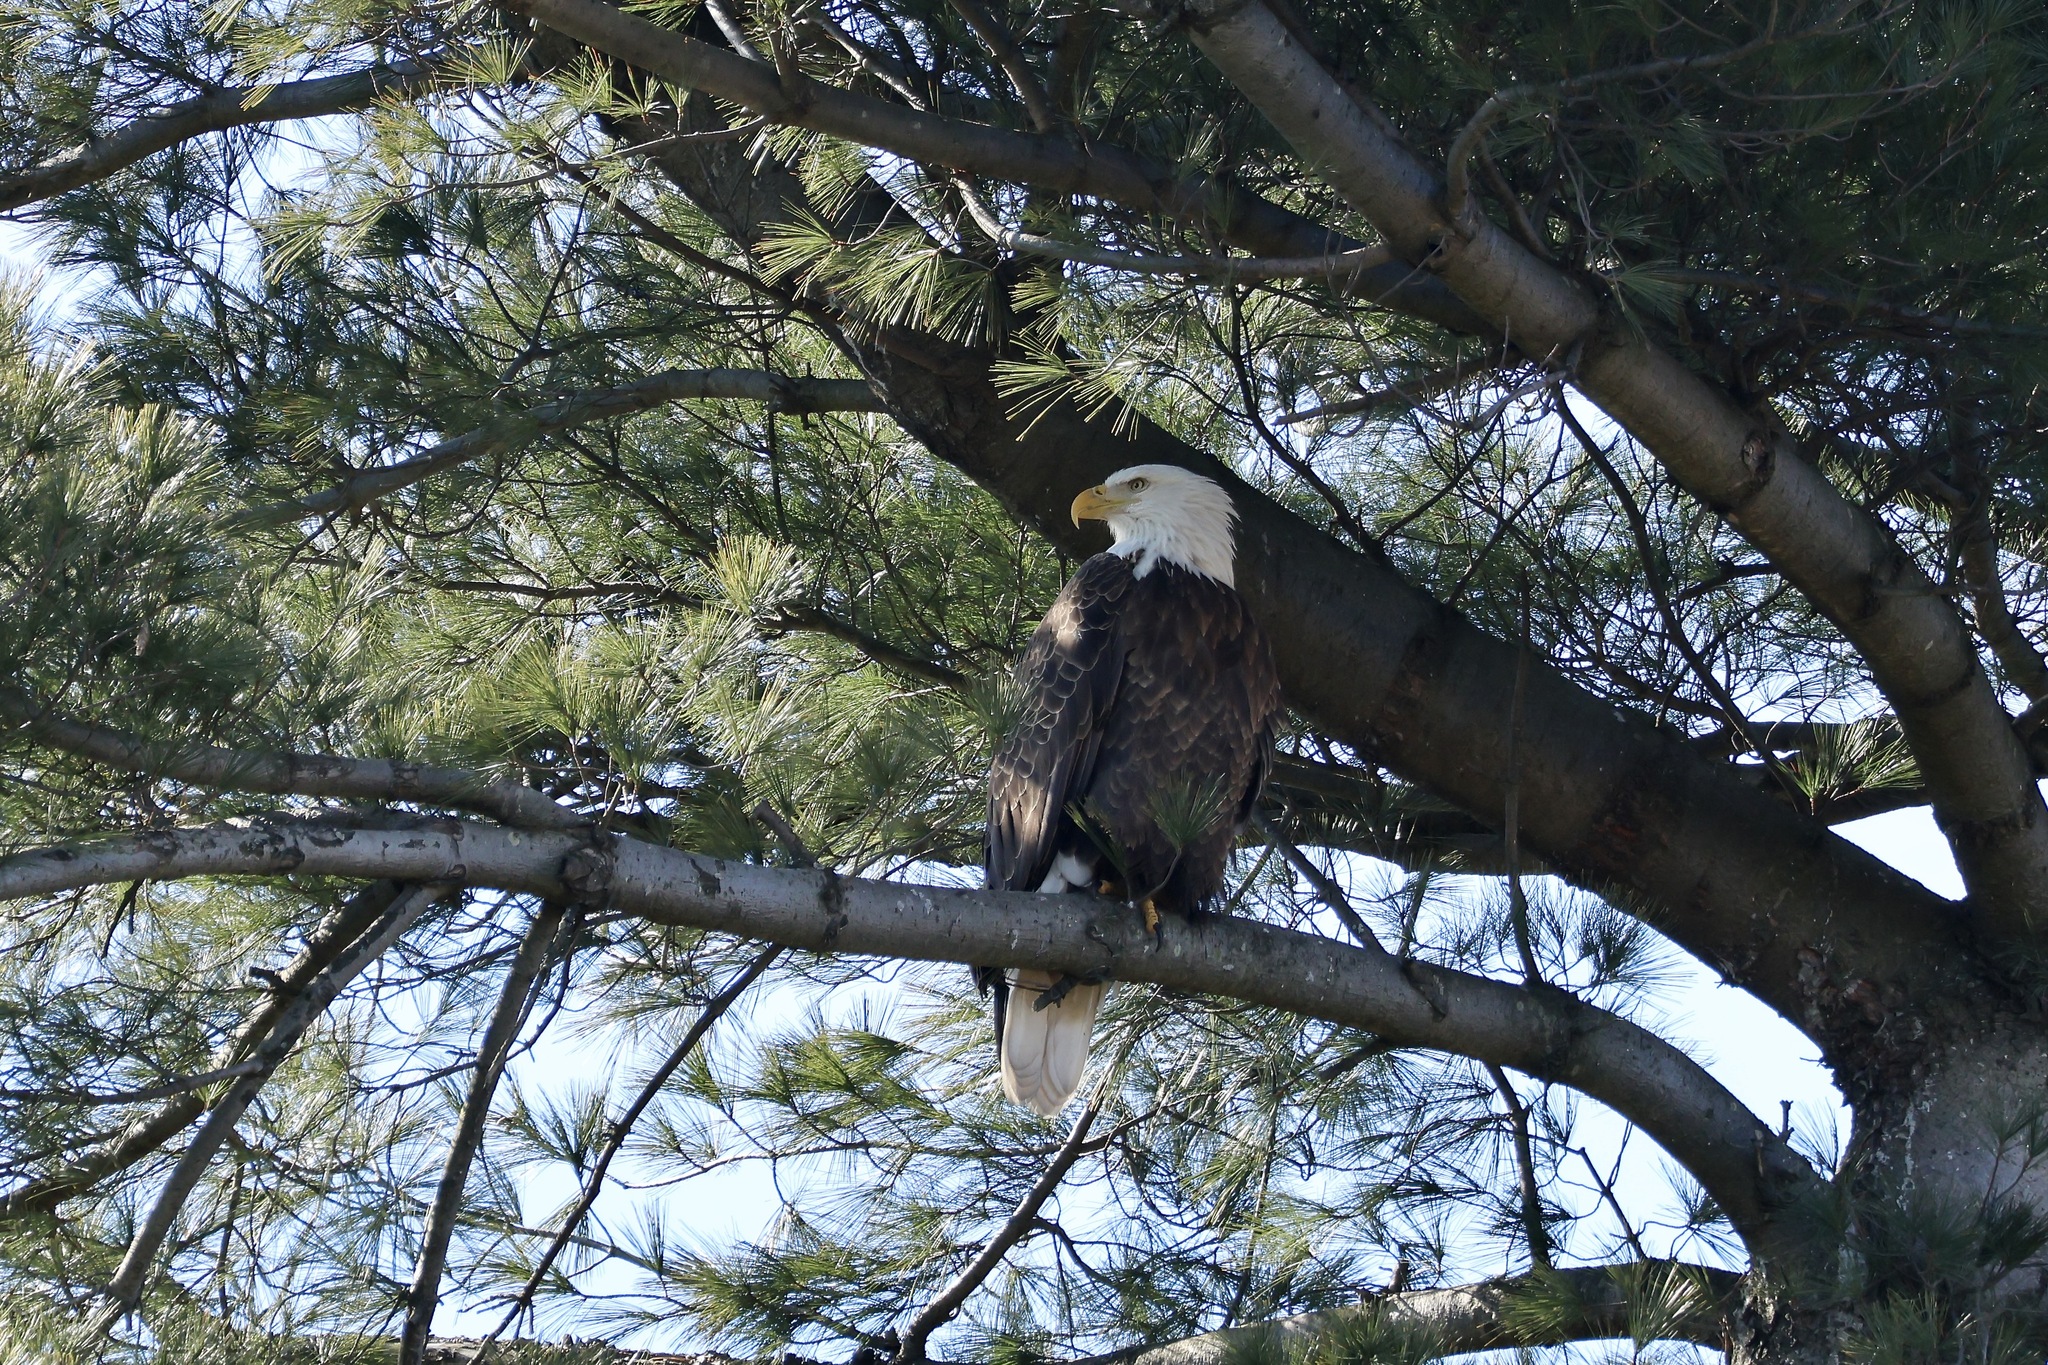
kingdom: Animalia
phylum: Chordata
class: Aves
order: Accipitriformes
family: Accipitridae
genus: Haliaeetus
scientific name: Haliaeetus leucocephalus
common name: Bald eagle
